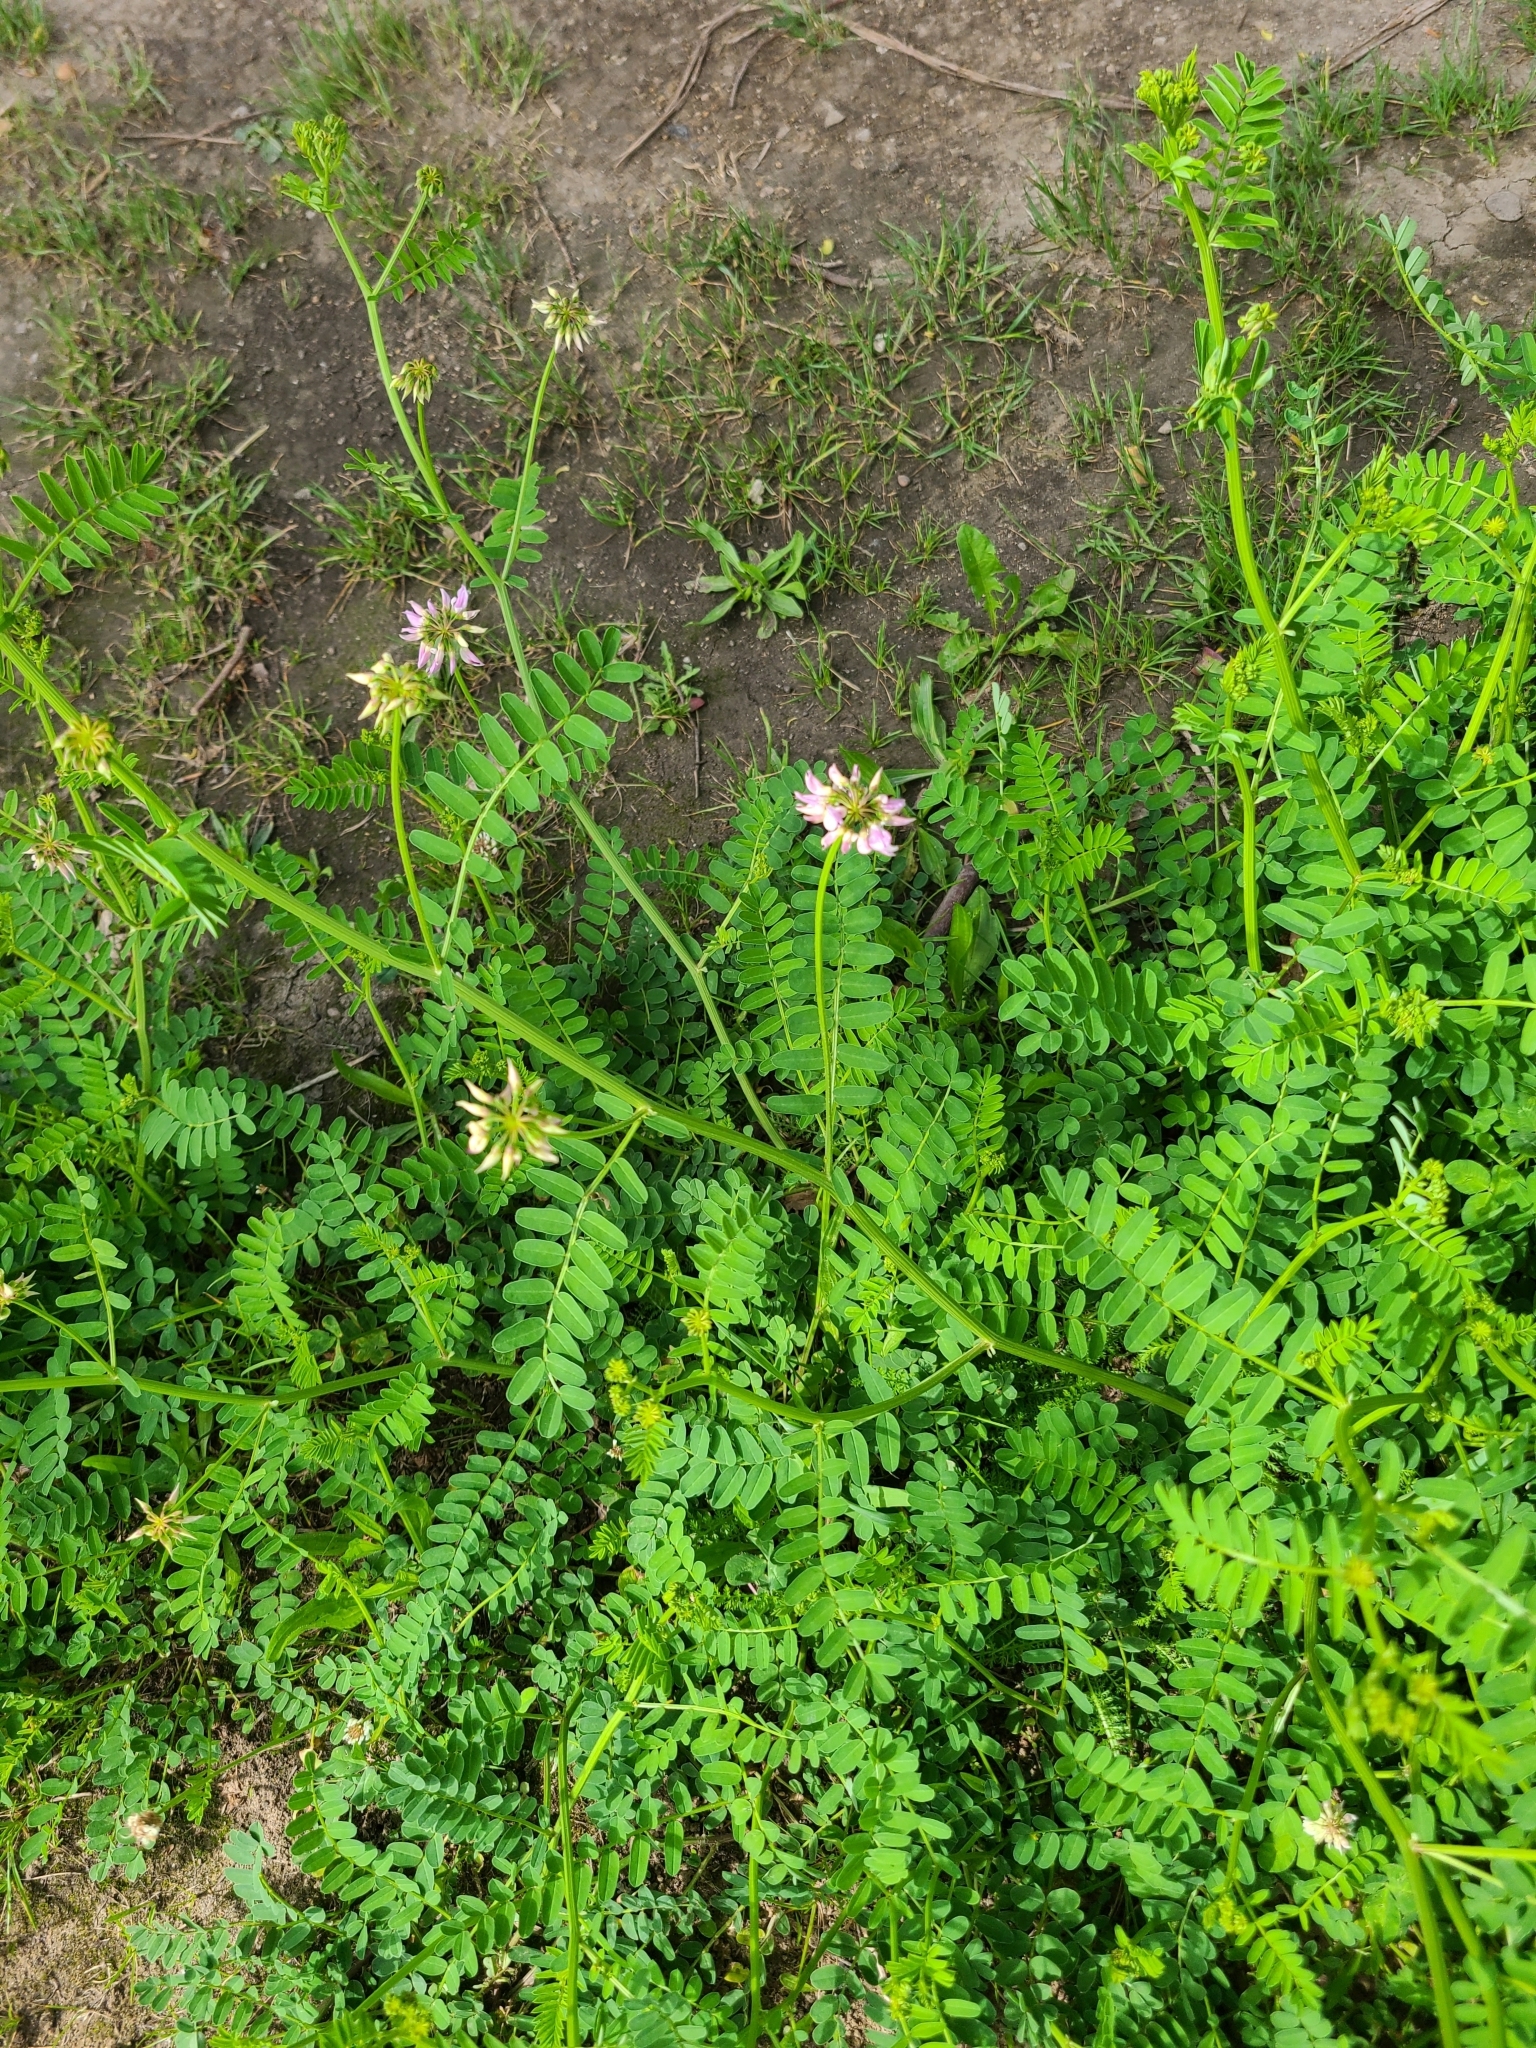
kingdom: Plantae
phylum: Tracheophyta
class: Magnoliopsida
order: Fabales
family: Fabaceae
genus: Coronilla
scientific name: Coronilla varia
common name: Crownvetch
